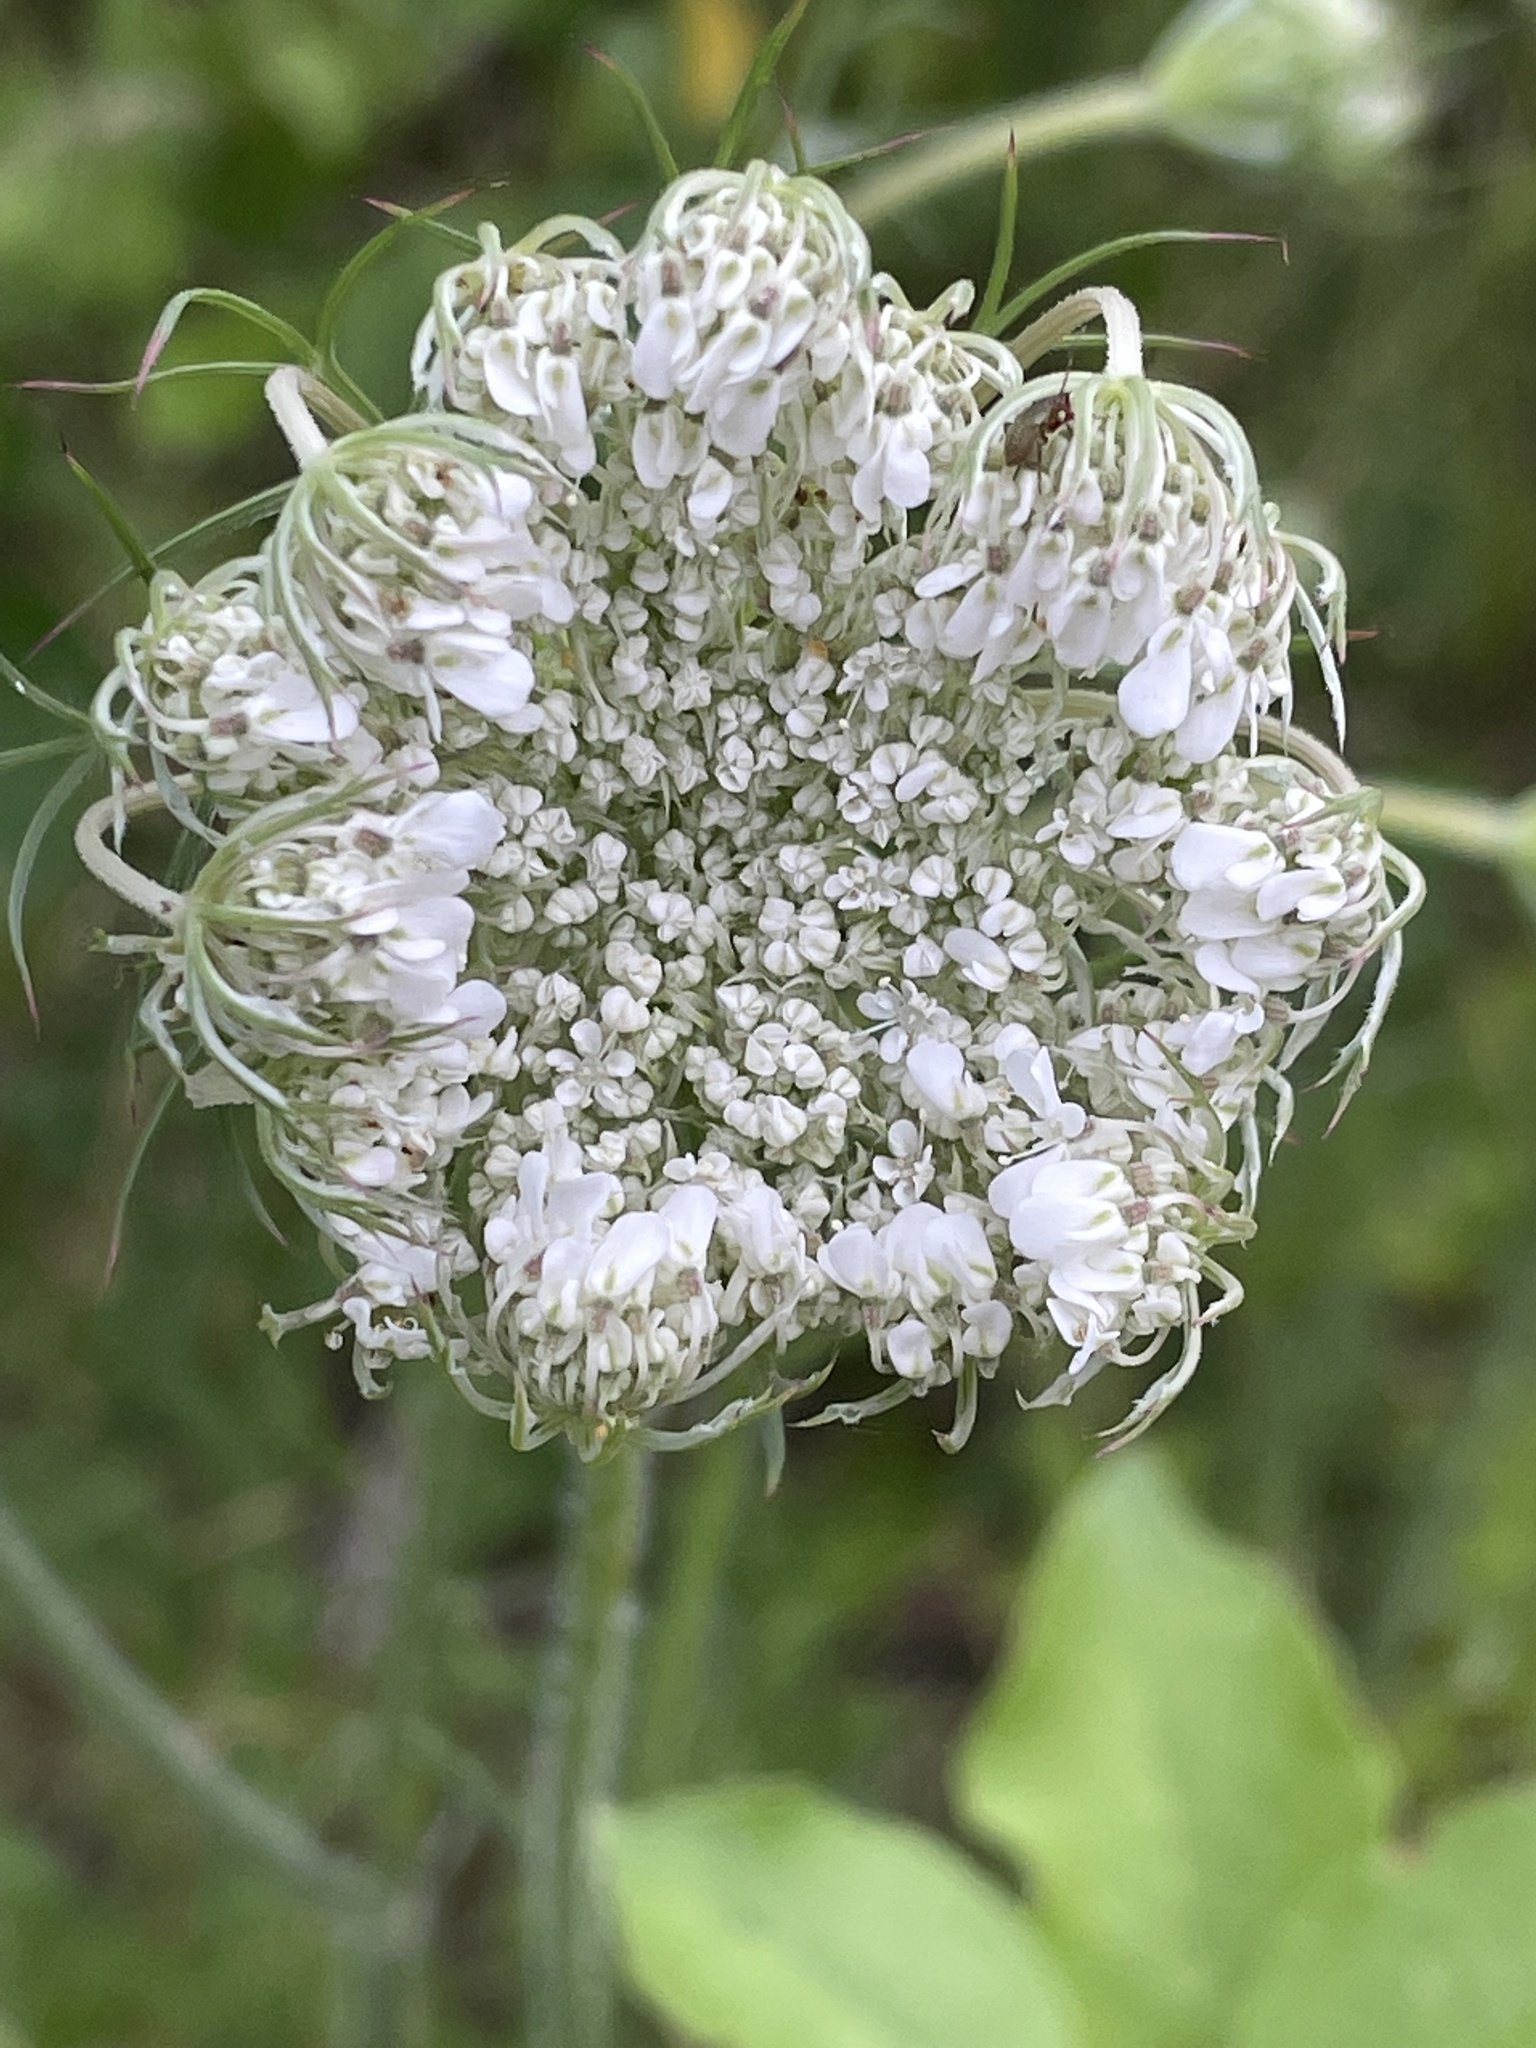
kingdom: Plantae
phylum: Tracheophyta
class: Magnoliopsida
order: Apiales
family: Apiaceae
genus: Daucus
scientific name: Daucus carota
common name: Wild carrot
